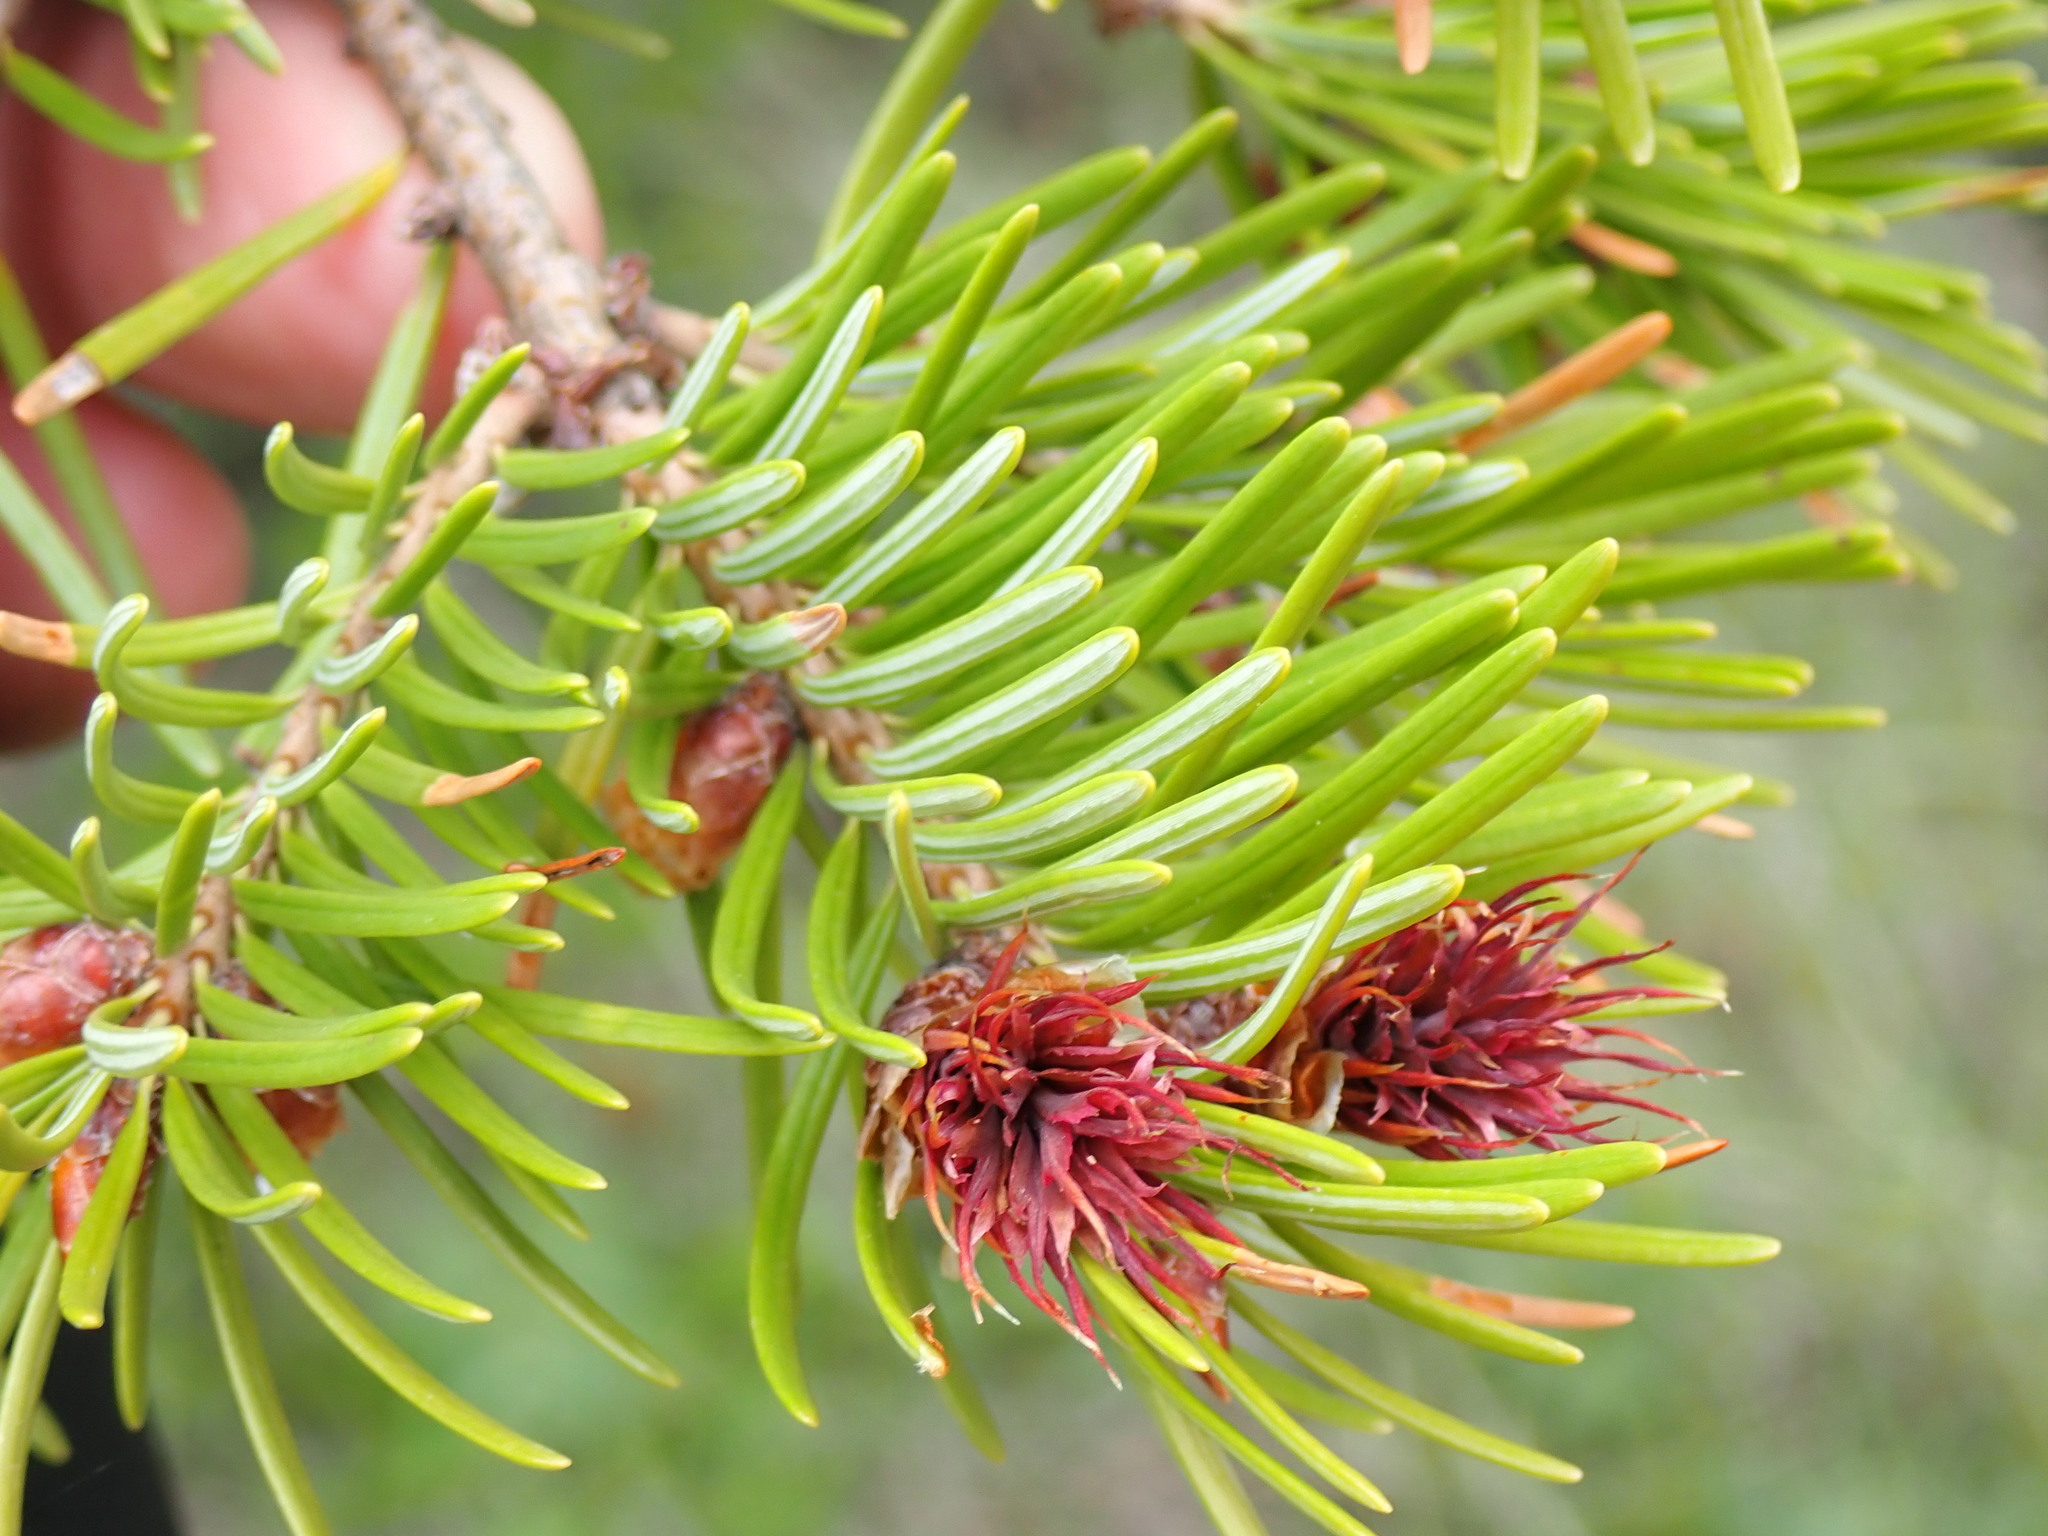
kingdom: Plantae
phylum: Tracheophyta
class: Pinopsida
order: Pinales
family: Pinaceae
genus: Pseudotsuga
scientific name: Pseudotsuga menziesii
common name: Douglas fir
